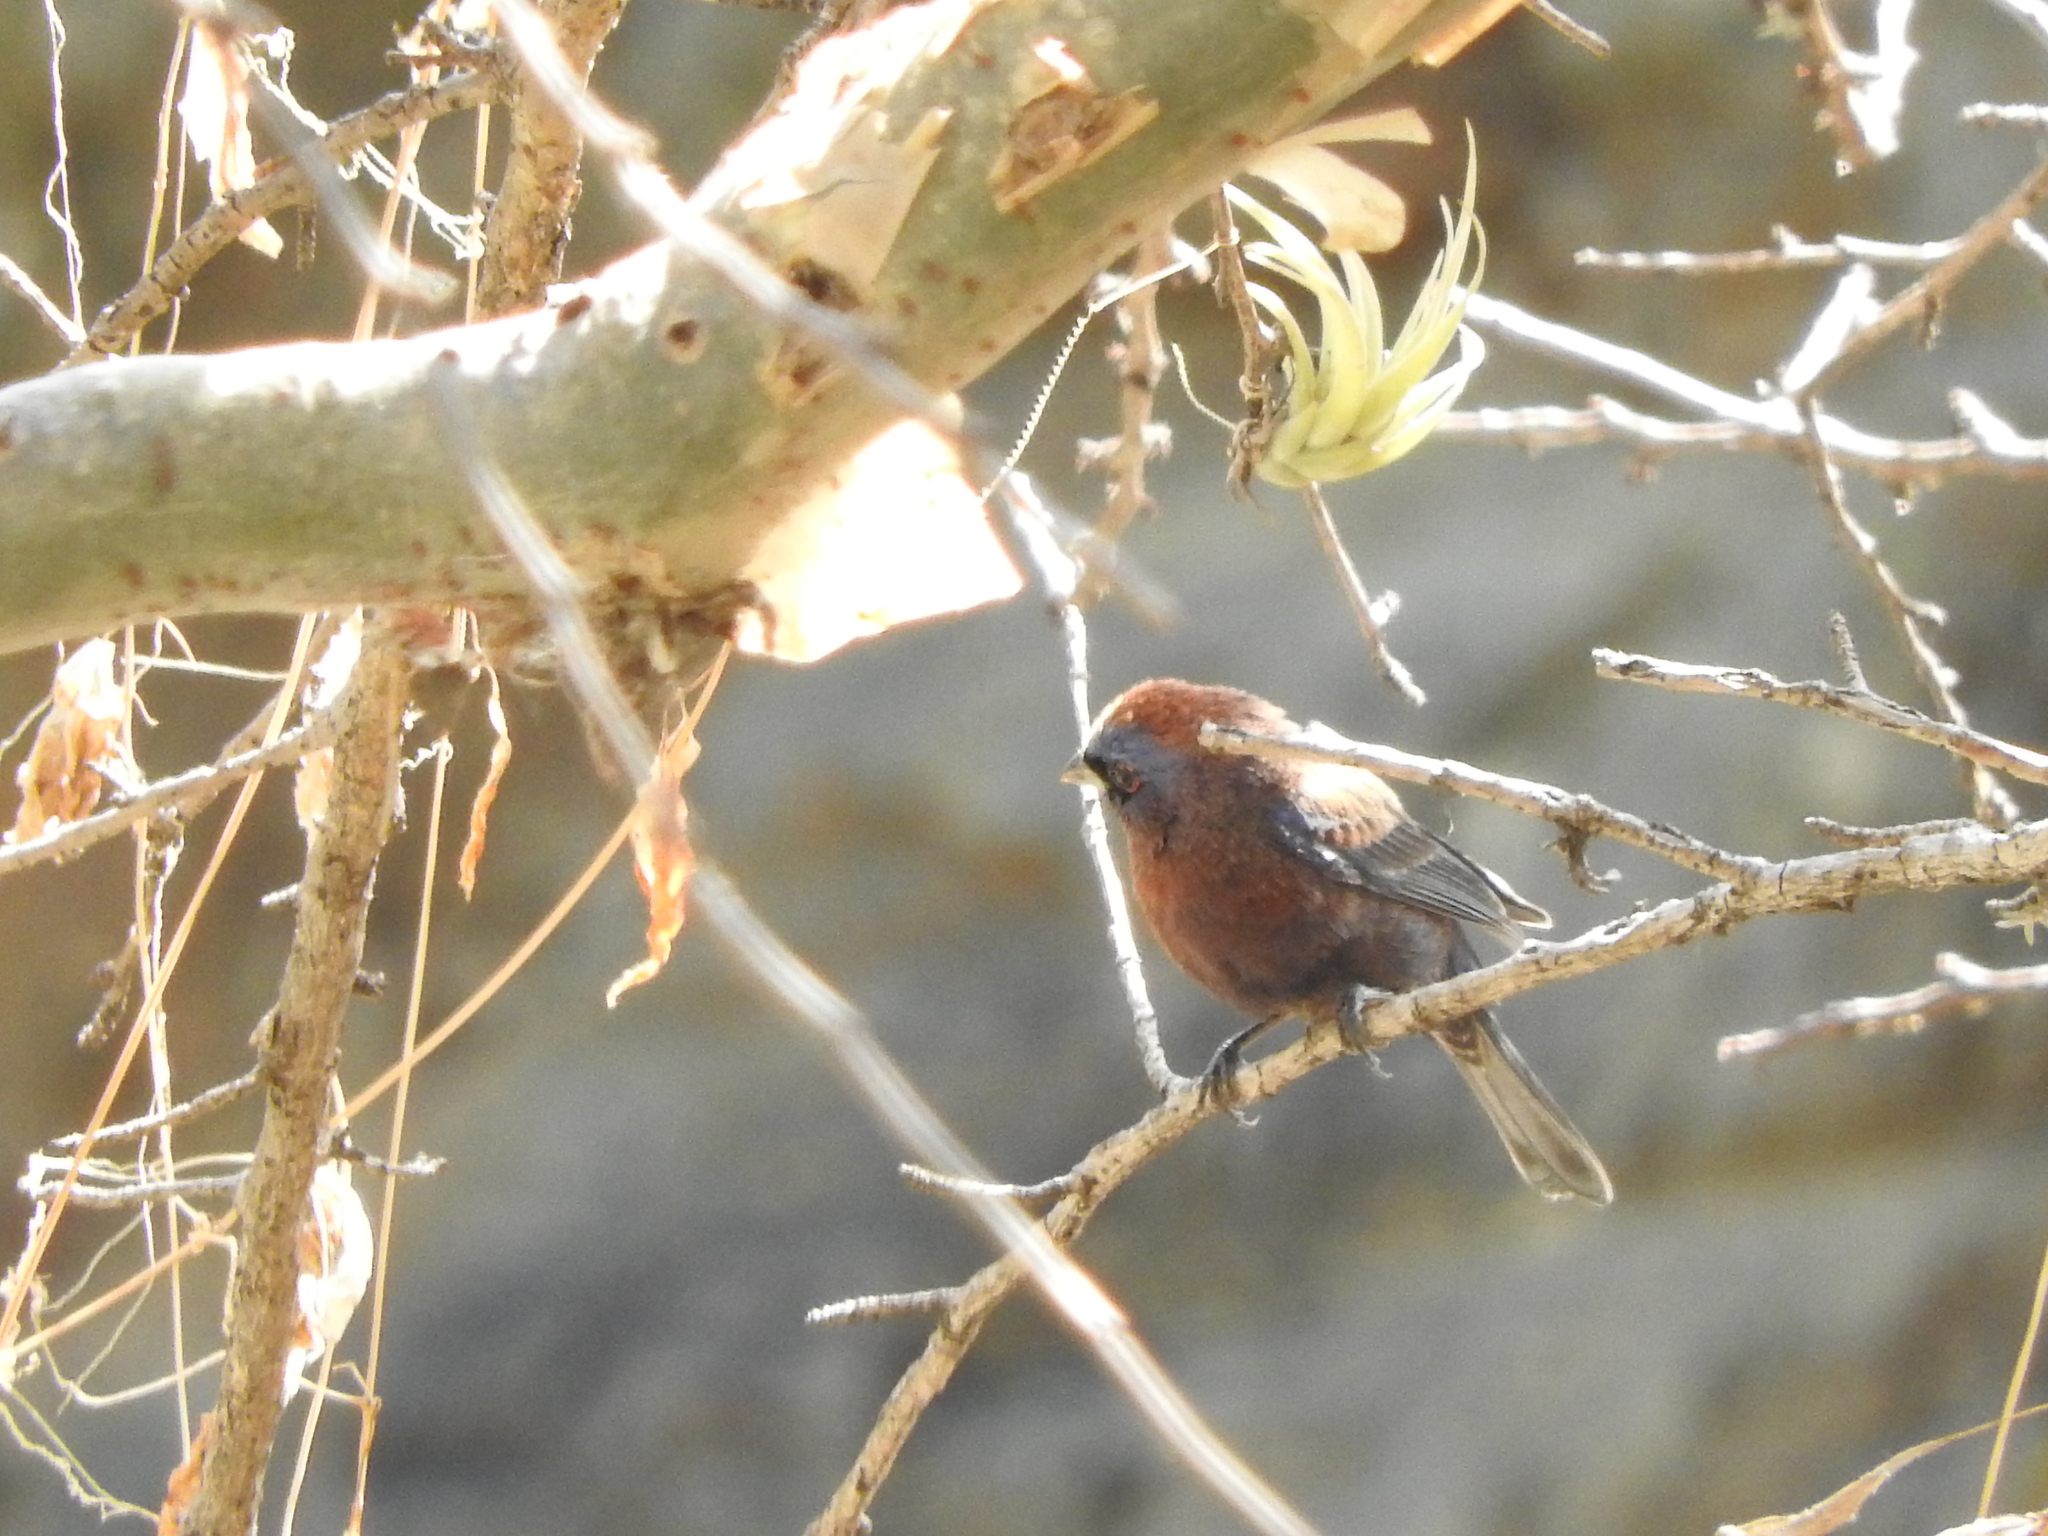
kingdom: Animalia
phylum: Chordata
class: Aves
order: Passeriformes
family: Cardinalidae
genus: Passerina
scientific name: Passerina versicolor
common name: Varied bunting
